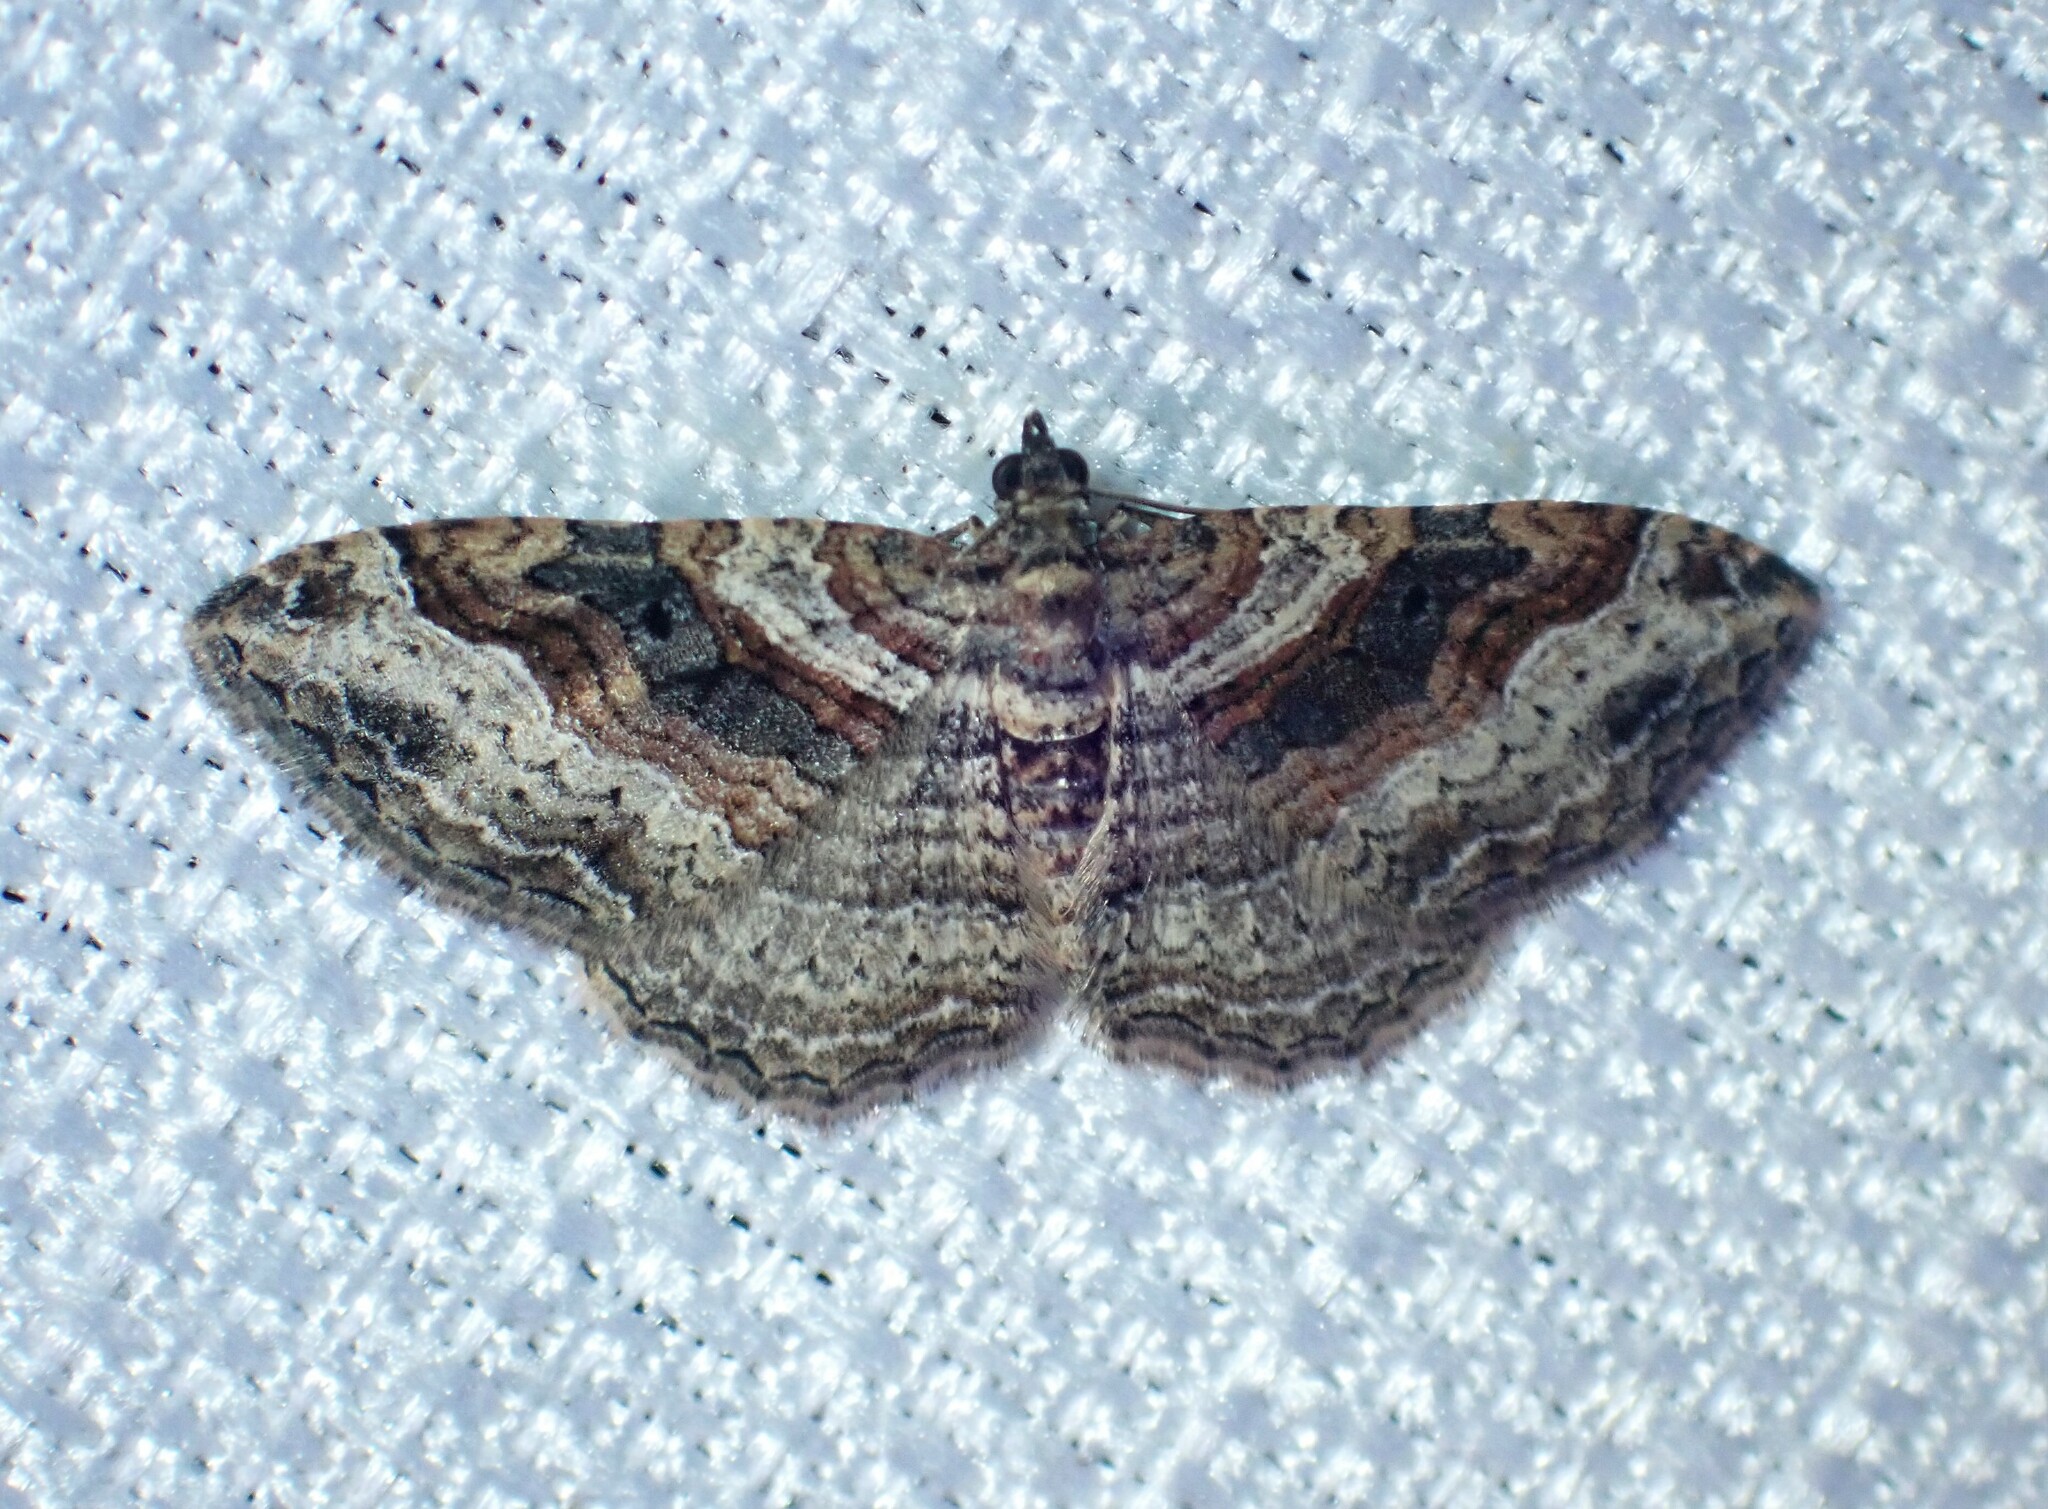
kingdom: Animalia
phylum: Arthropoda
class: Insecta
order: Lepidoptera
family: Geometridae
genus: Costaconvexa
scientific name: Costaconvexa centrostrigaria
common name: Bent-line carpet
